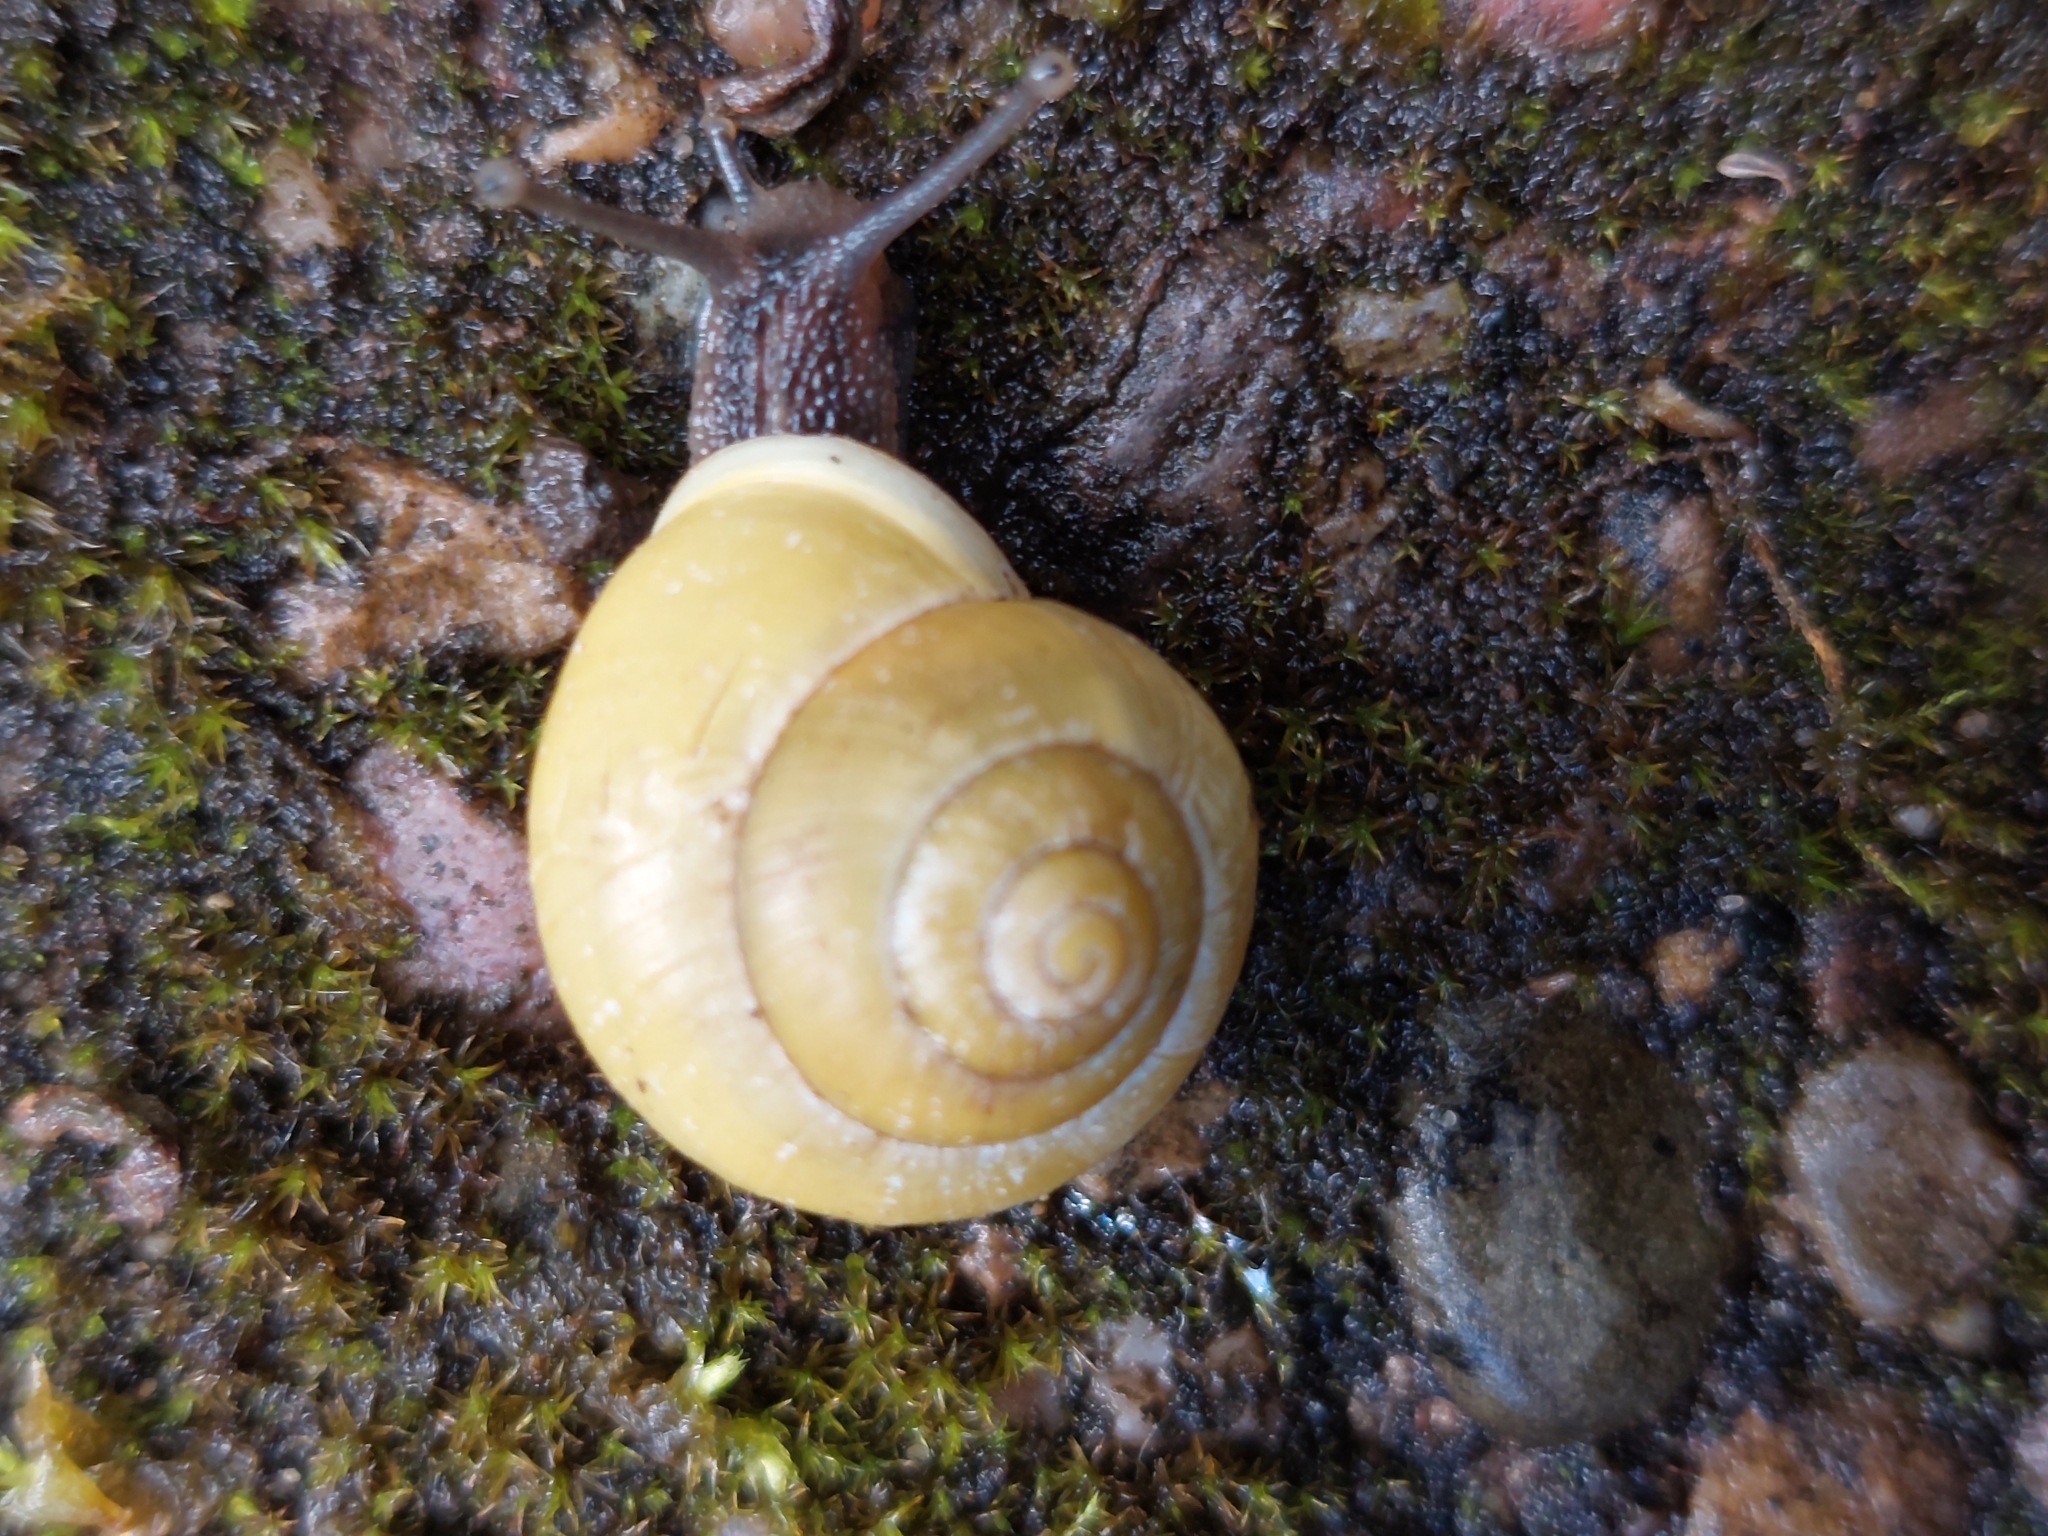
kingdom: Animalia
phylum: Mollusca
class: Gastropoda
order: Stylommatophora
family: Helicidae
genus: Cepaea
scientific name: Cepaea hortensis
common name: White-lip gardensnail
